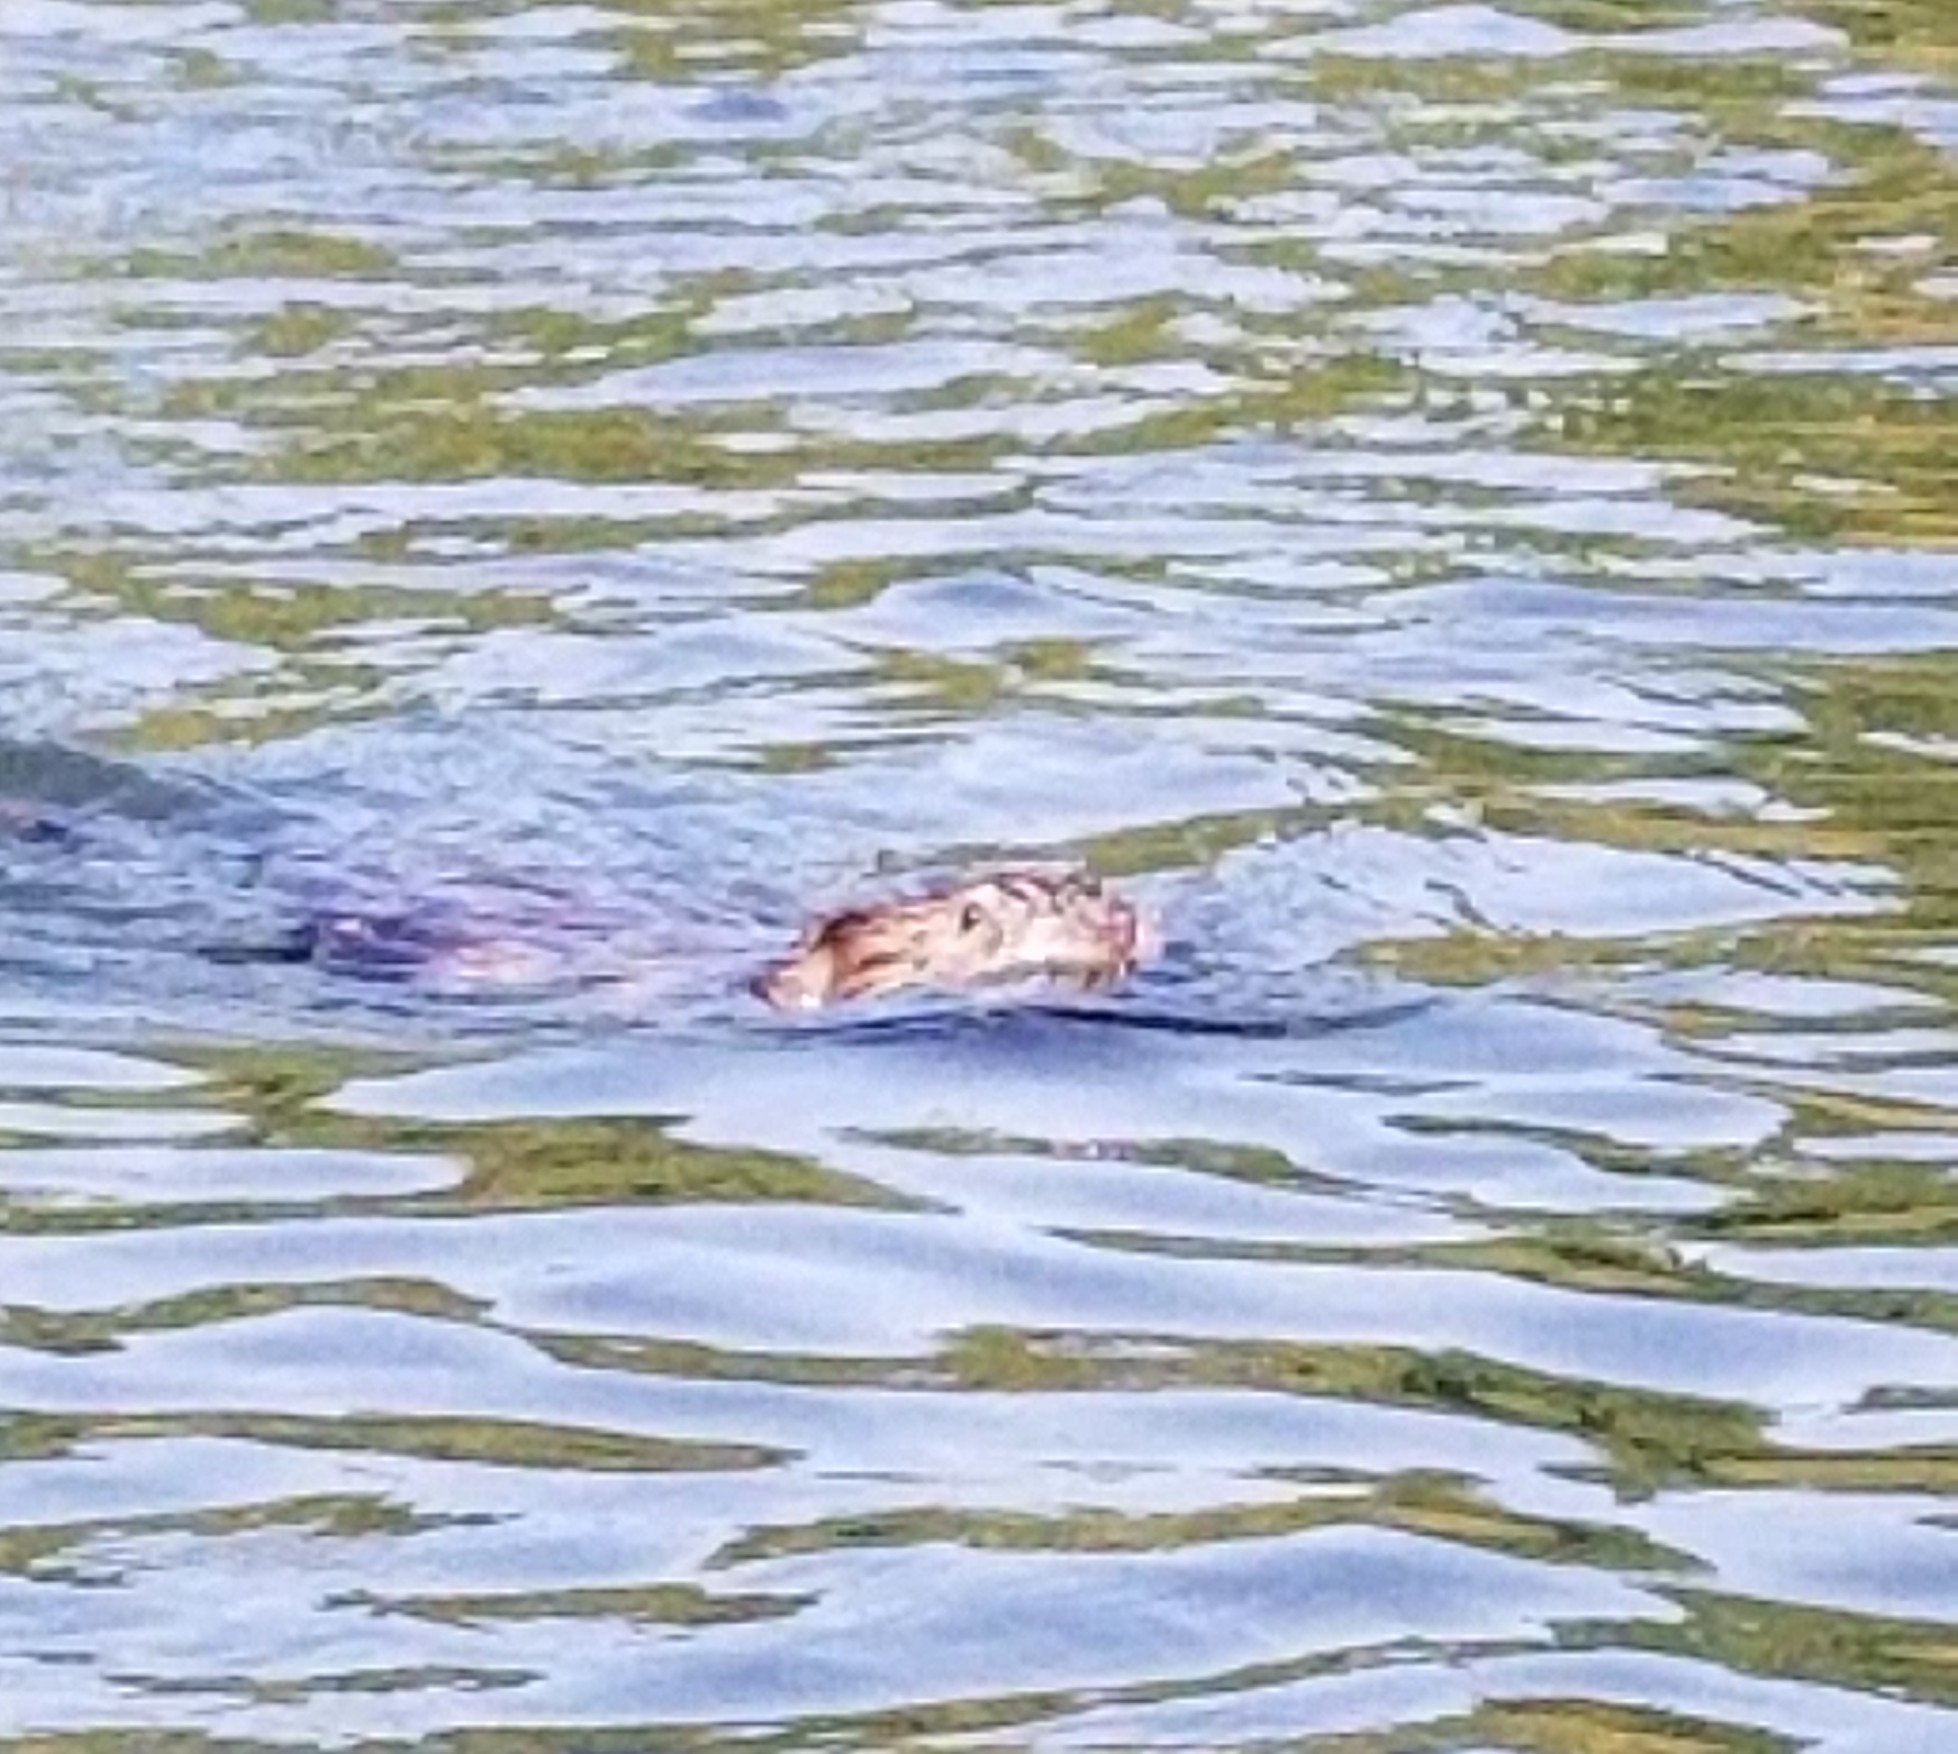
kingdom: Animalia
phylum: Chordata
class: Mammalia
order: Rodentia
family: Cricetidae
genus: Ondatra
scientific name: Ondatra zibethicus
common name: Muskrat
